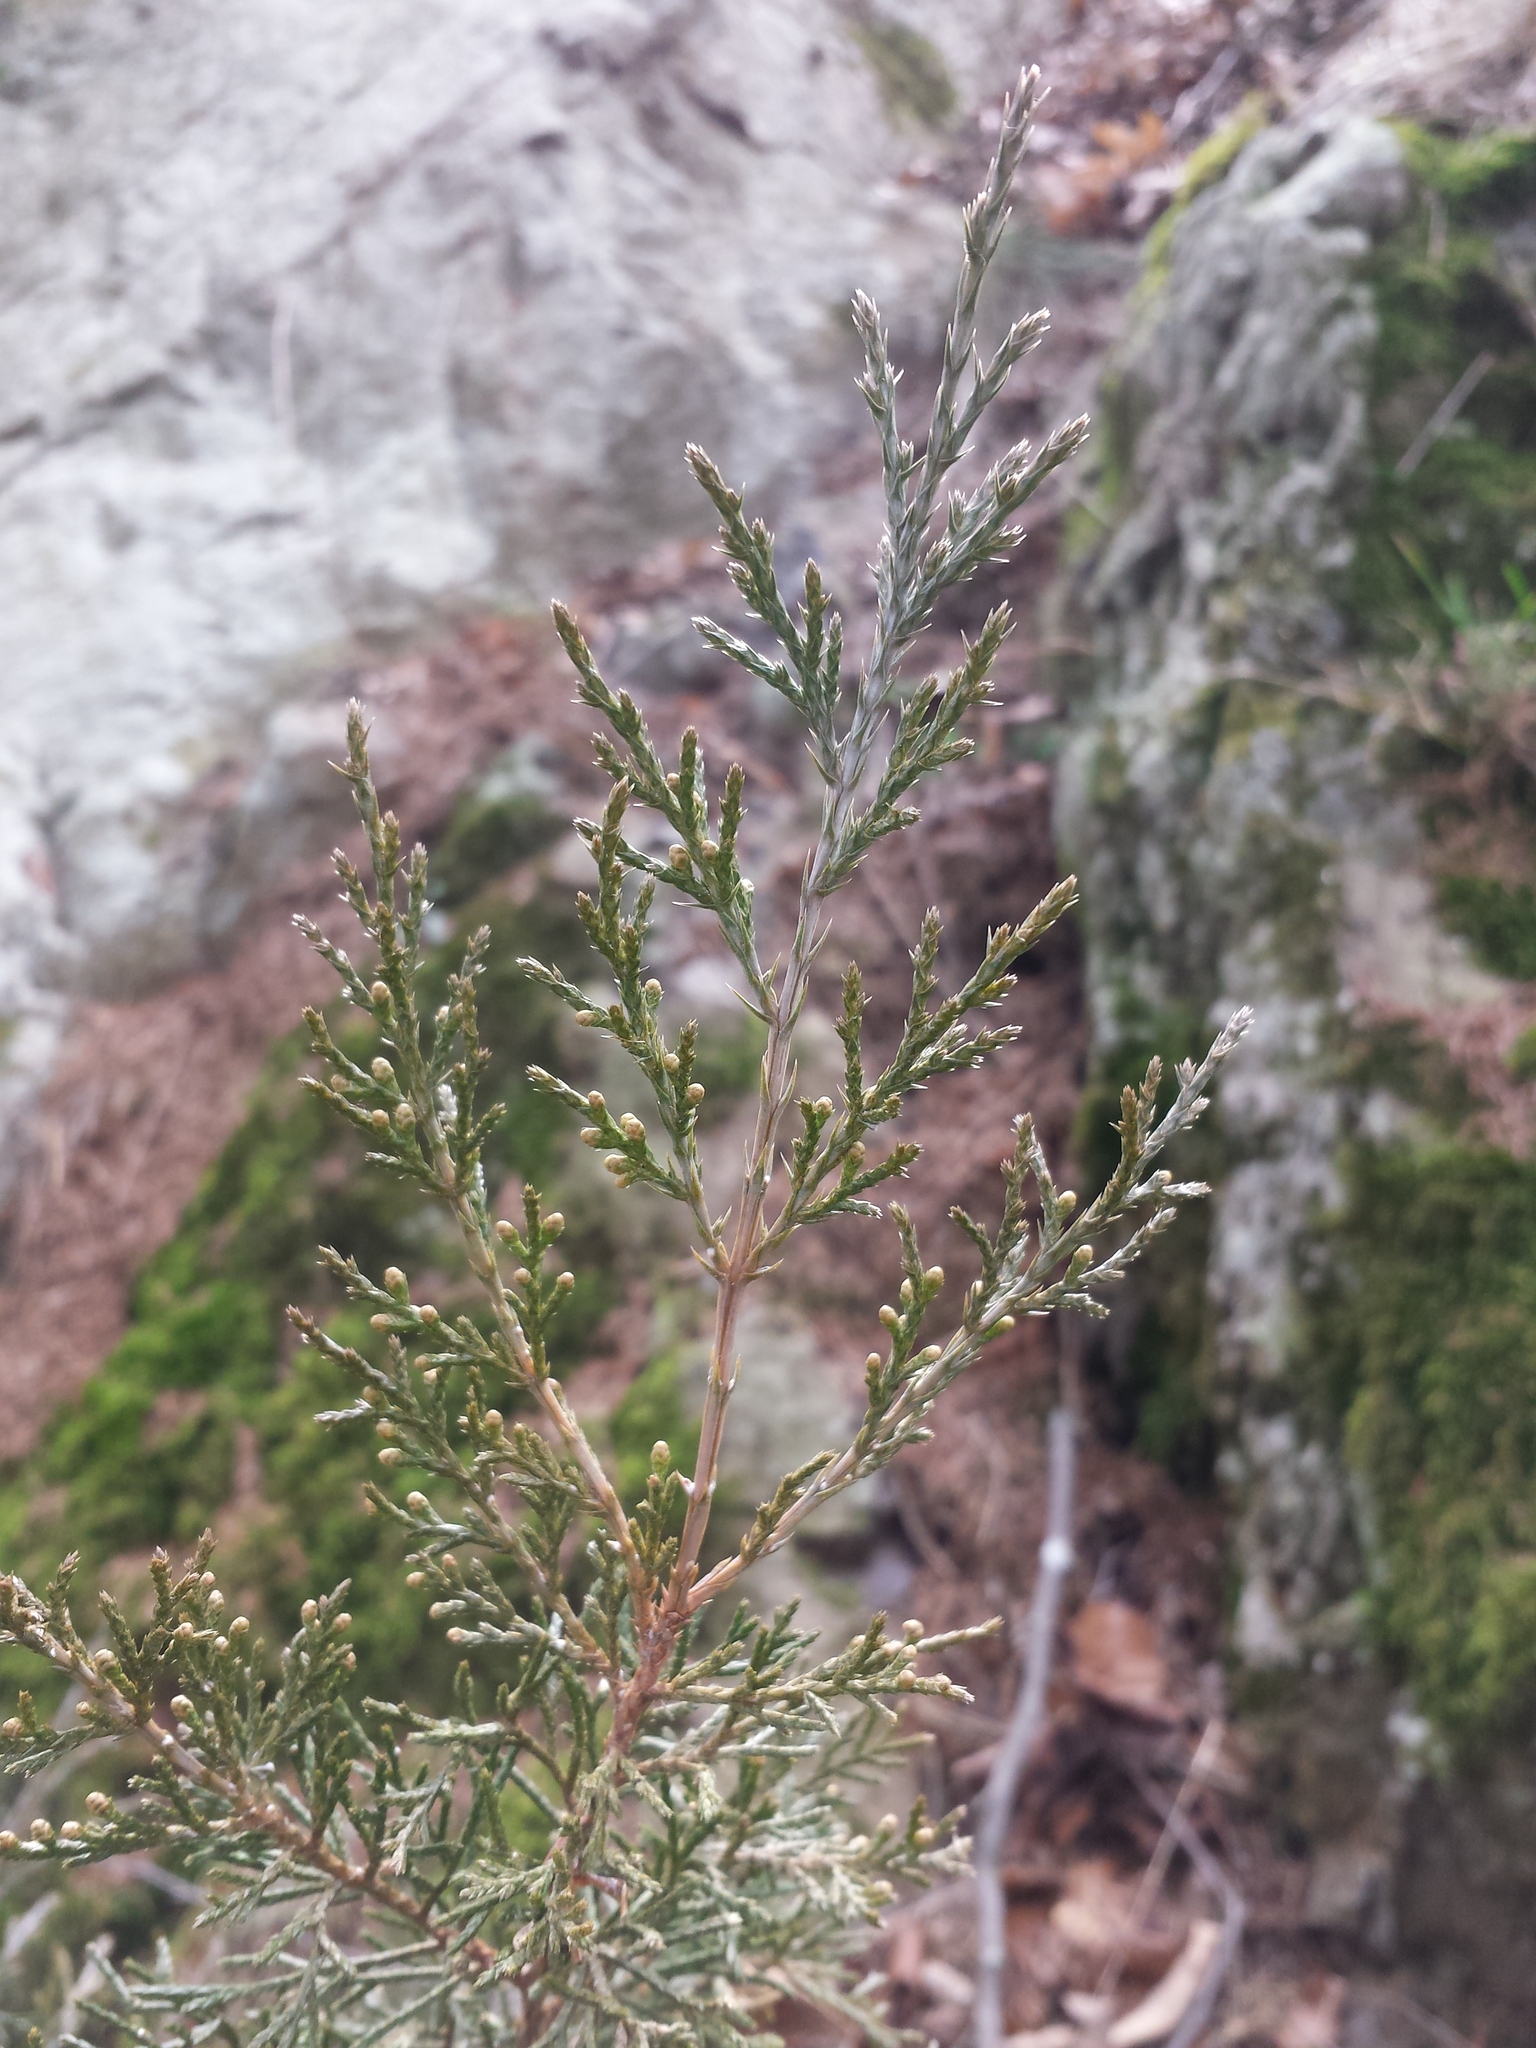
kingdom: Plantae
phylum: Tracheophyta
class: Pinopsida
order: Pinales
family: Cupressaceae
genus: Juniperus
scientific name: Juniperus virginiana
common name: Red juniper
